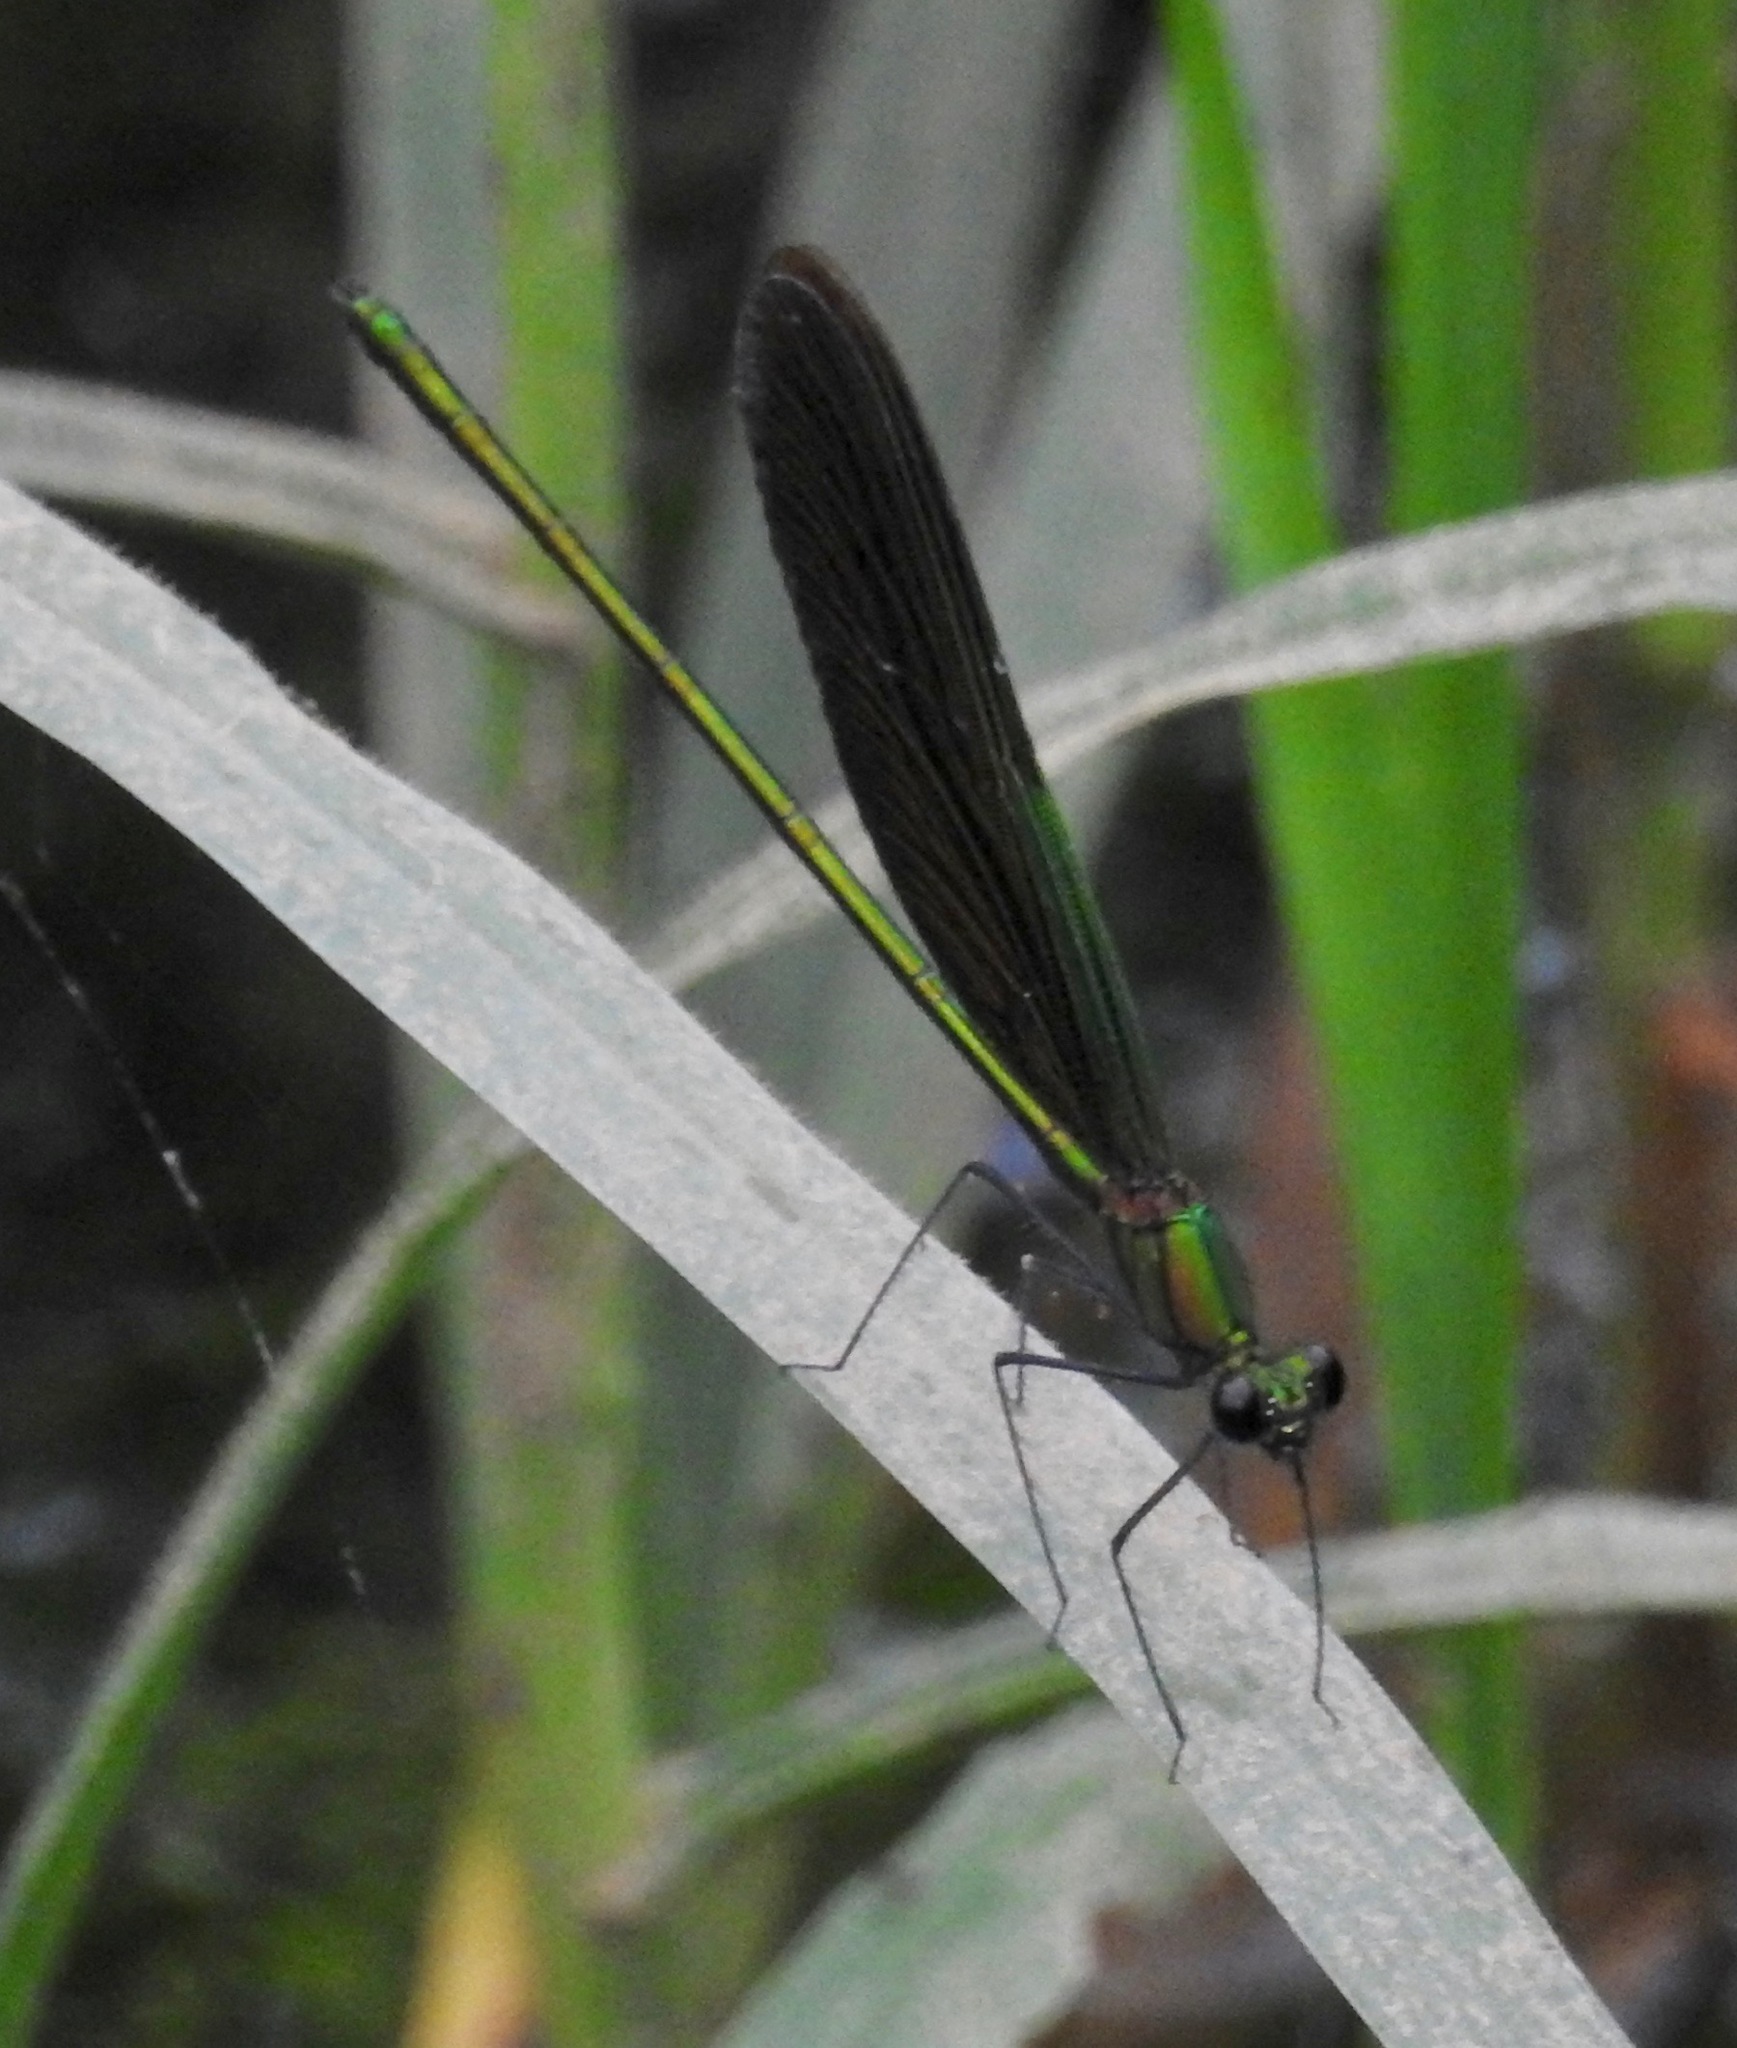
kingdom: Animalia
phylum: Arthropoda
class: Insecta
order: Odonata
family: Calopterygidae
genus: Neurobasis
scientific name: Neurobasis chinensis
